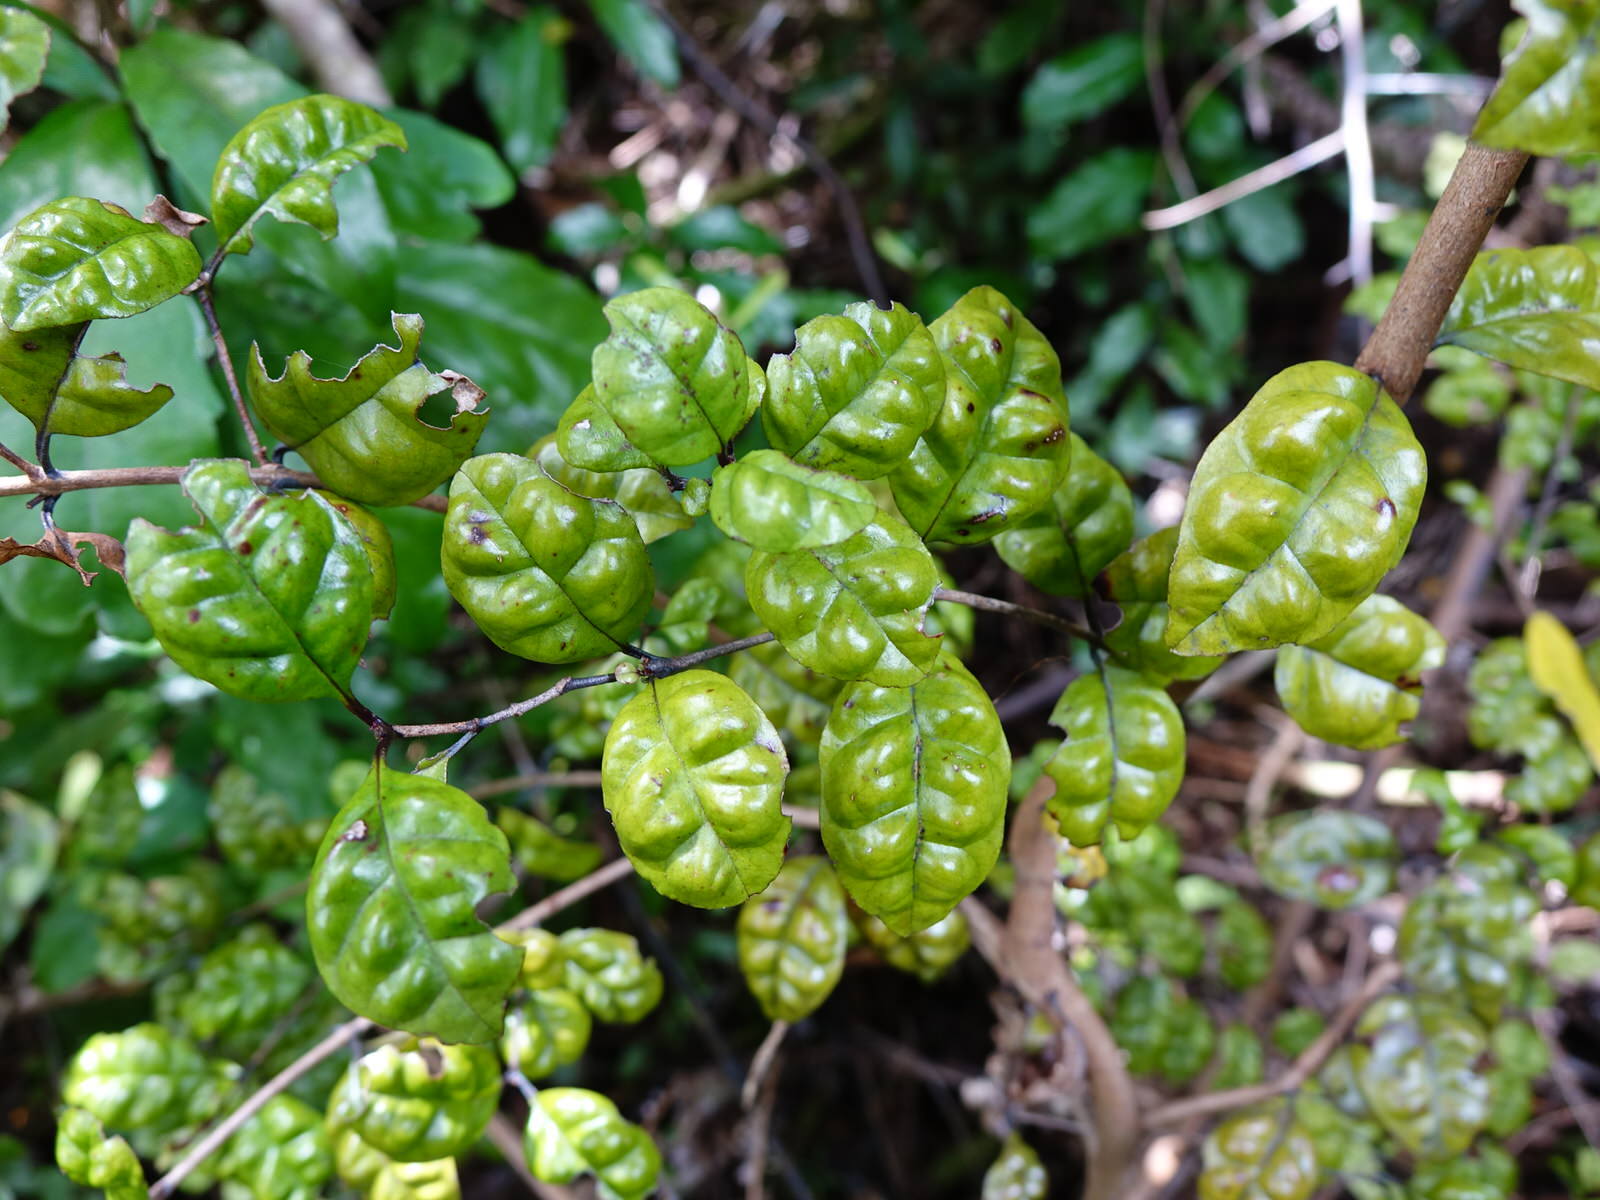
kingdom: Plantae
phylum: Tracheophyta
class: Magnoliopsida
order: Myrtales
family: Myrtaceae
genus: Lophomyrtus
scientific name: Lophomyrtus bullata
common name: Rama rama
